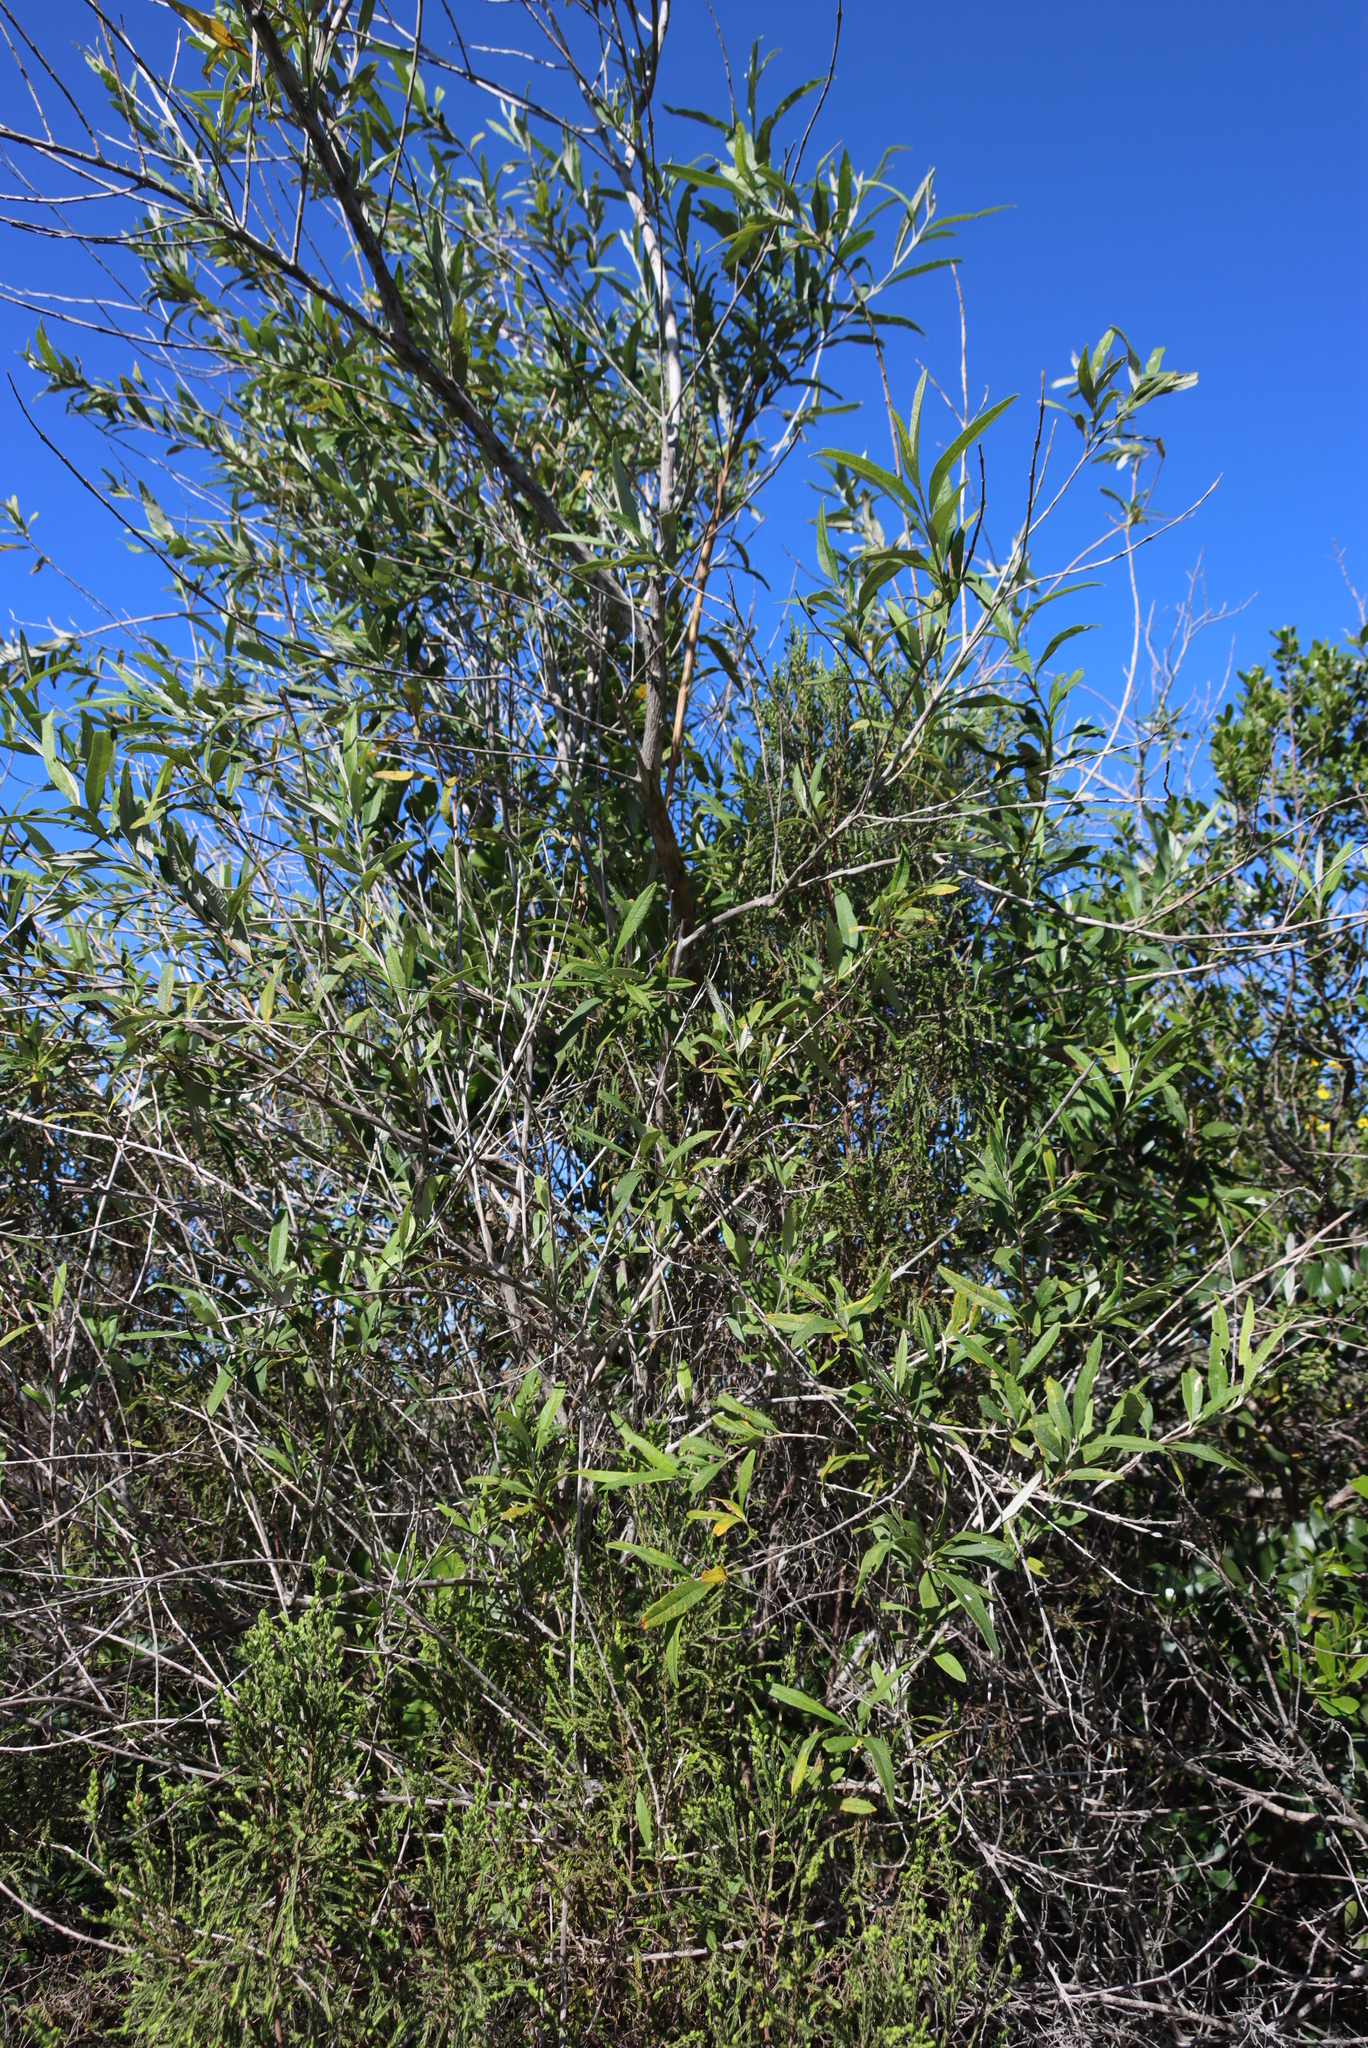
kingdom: Plantae
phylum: Tracheophyta
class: Magnoliopsida
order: Lamiales
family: Scrophulariaceae
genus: Buddleja
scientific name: Buddleja saligna
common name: False olive
